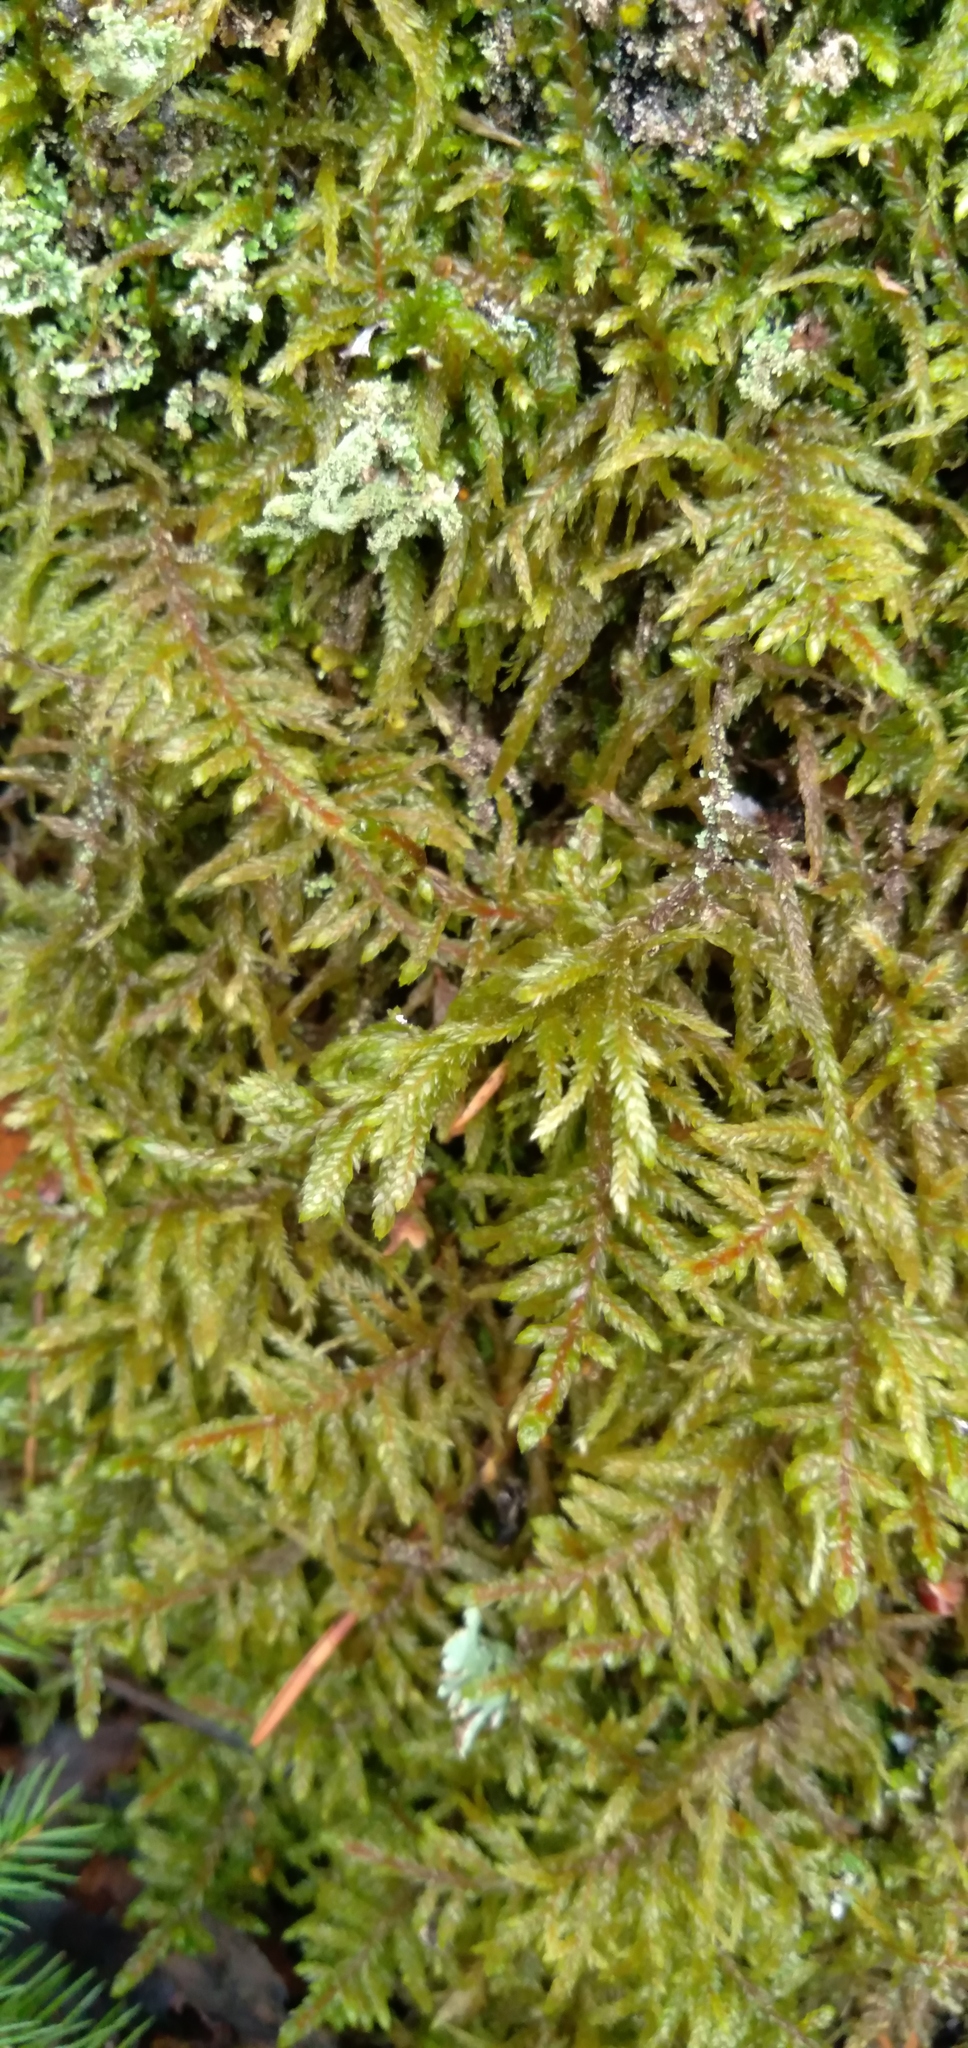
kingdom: Plantae
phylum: Bryophyta
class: Bryopsida
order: Hypnales
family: Hylocomiaceae
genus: Pleurozium
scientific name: Pleurozium schreberi
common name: Red-stemmed feather moss
